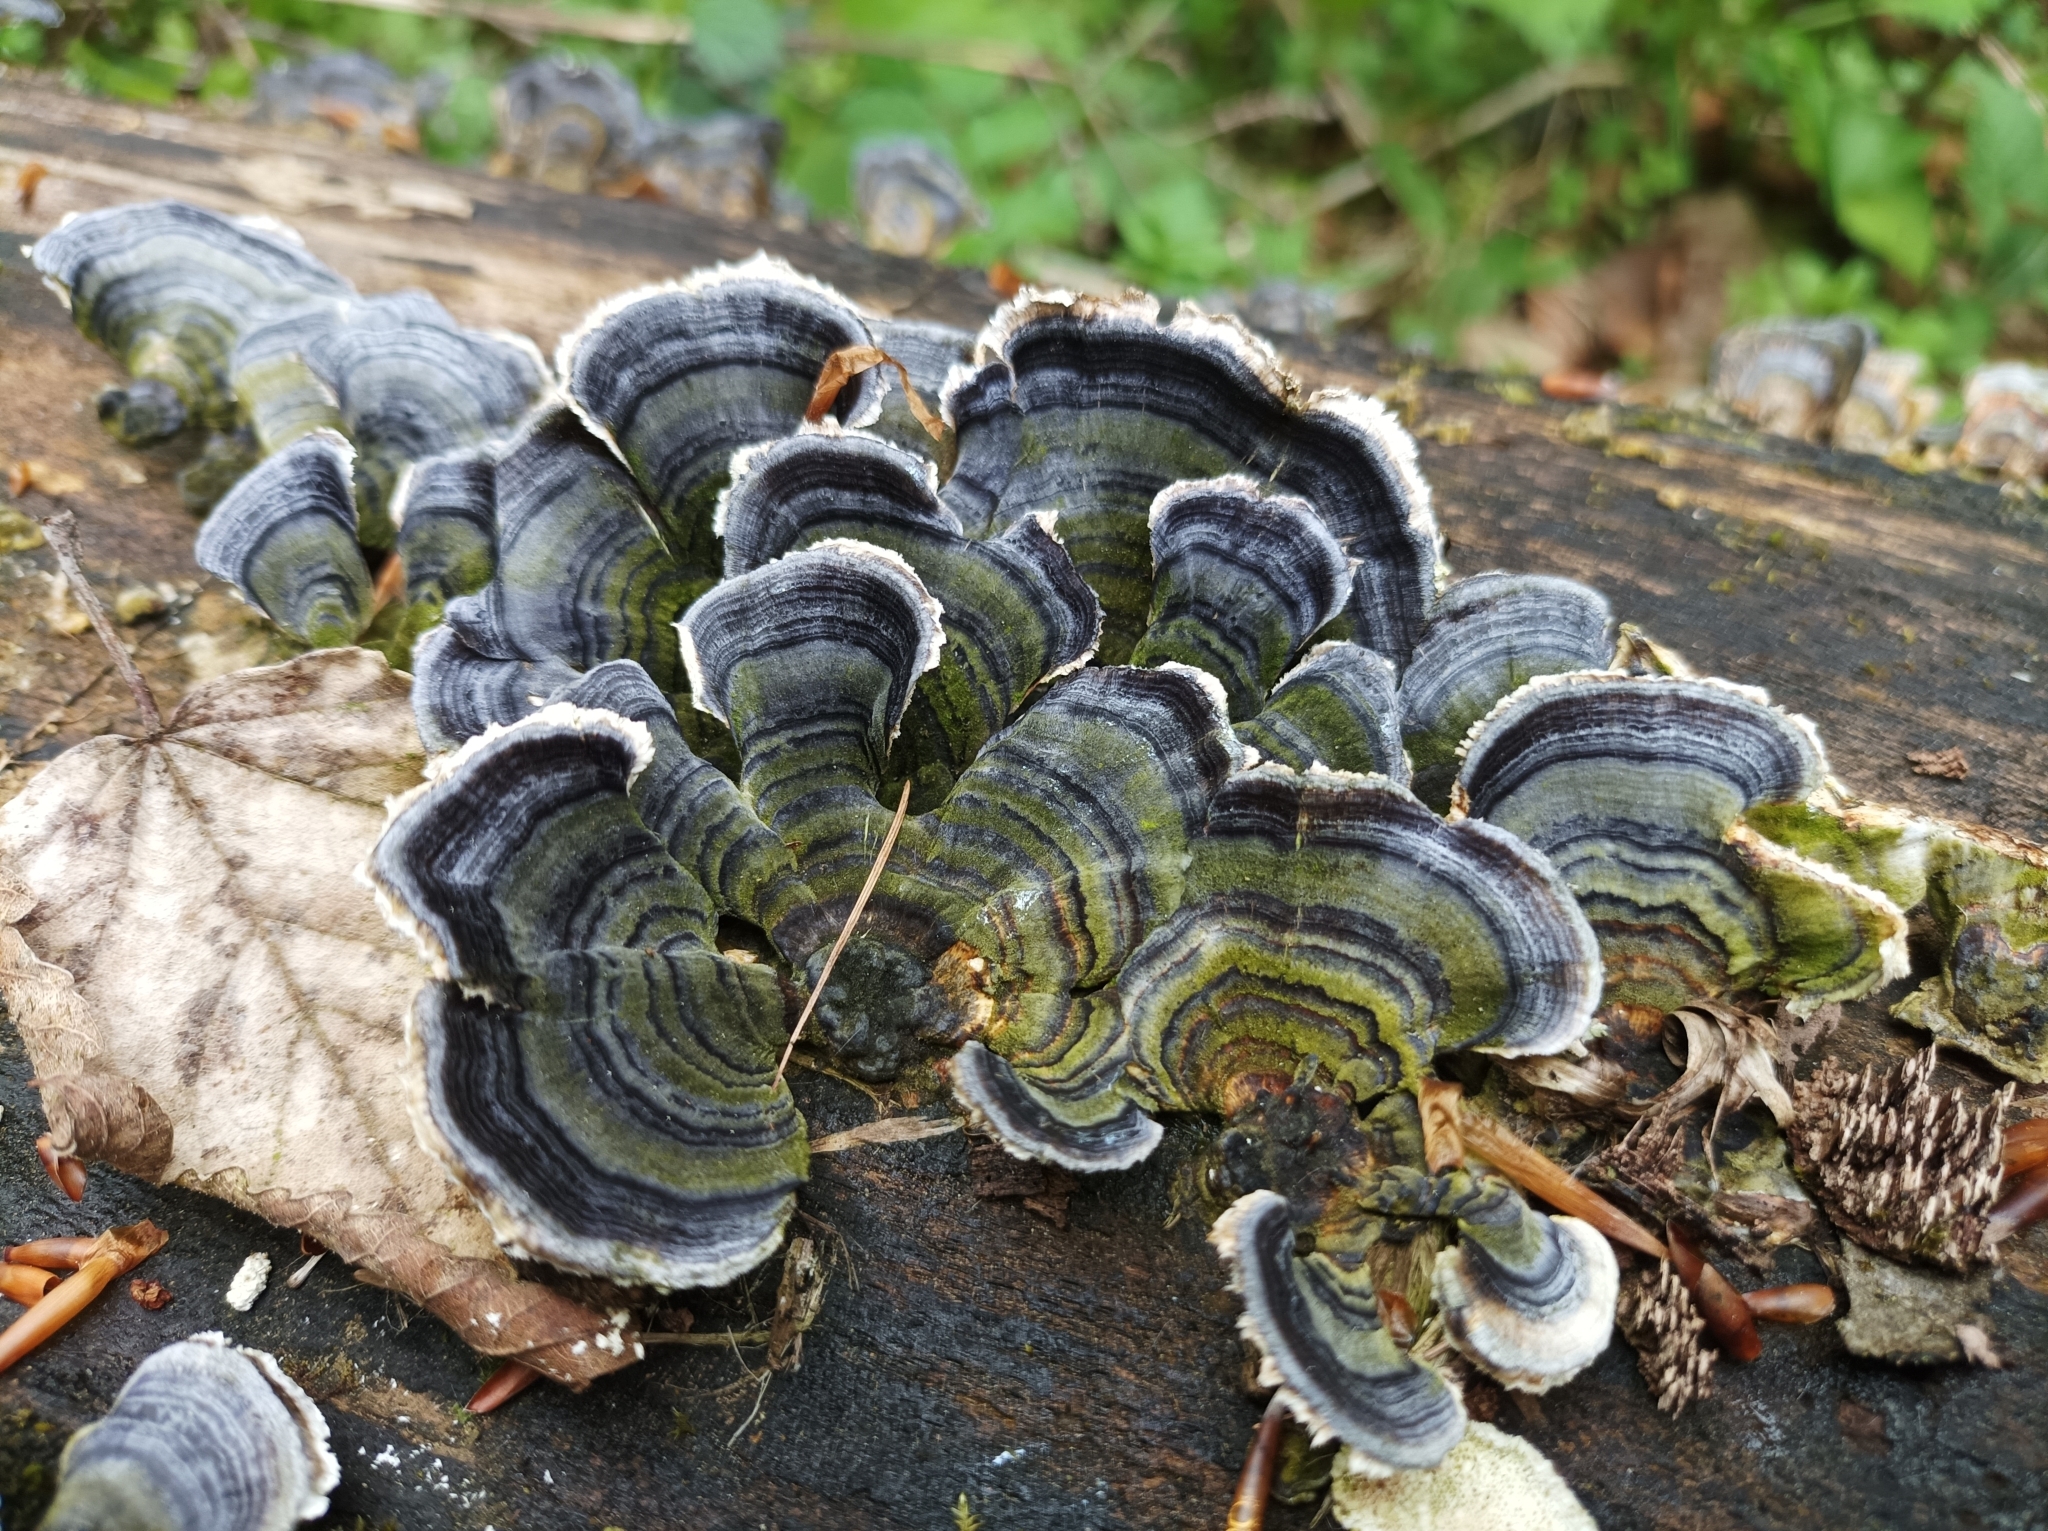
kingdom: Fungi
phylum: Basidiomycota
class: Agaricomycetes
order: Polyporales
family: Polyporaceae
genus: Trametes
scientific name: Trametes versicolor
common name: Turkeytail
